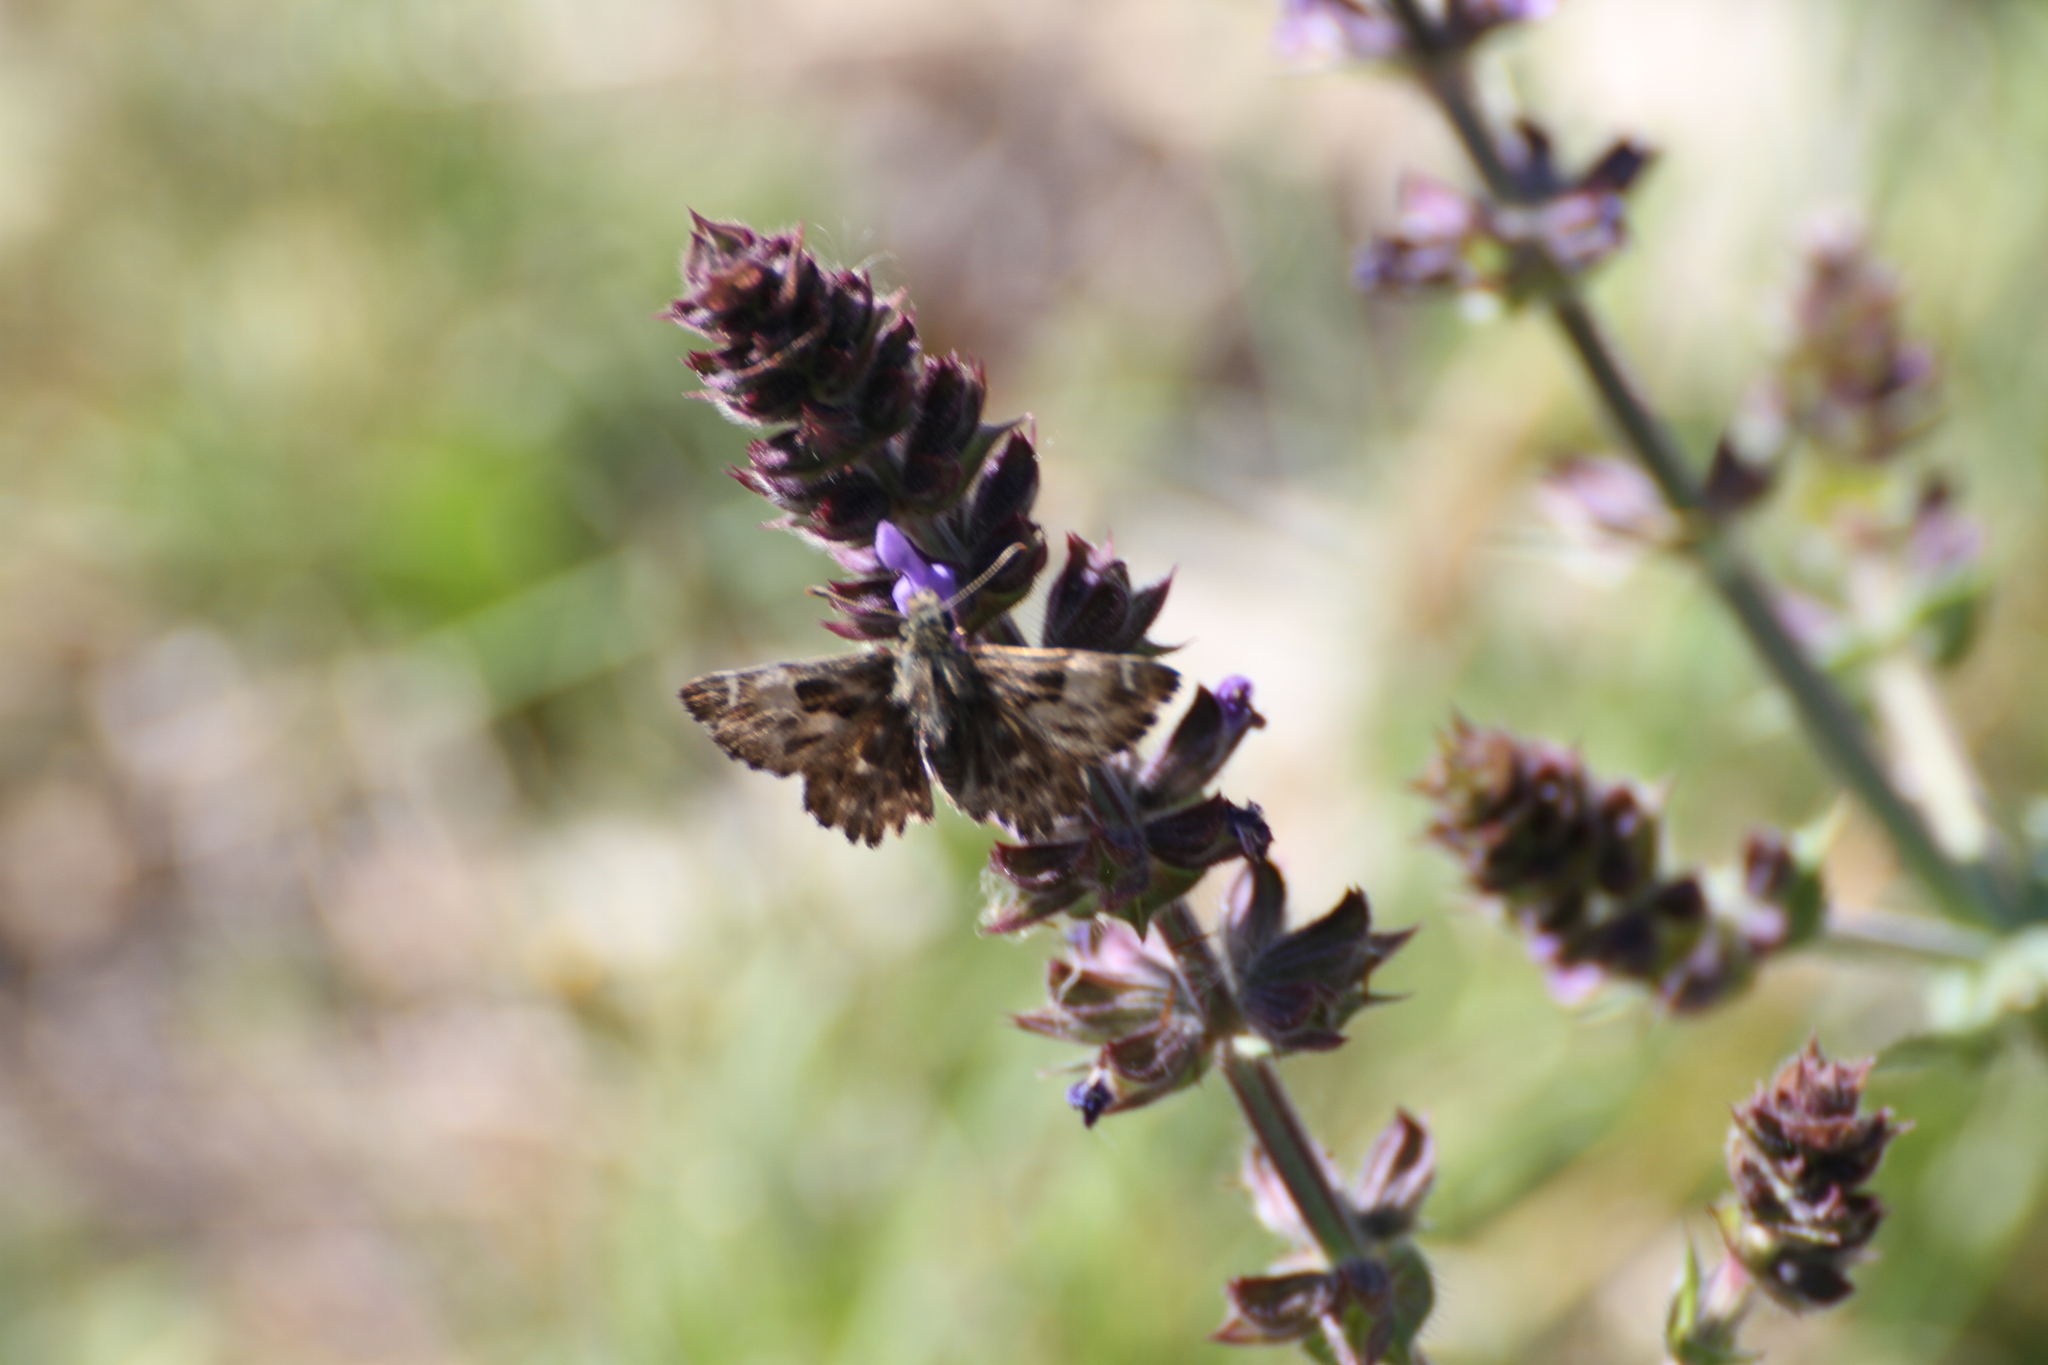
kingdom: Animalia
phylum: Arthropoda
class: Insecta
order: Lepidoptera
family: Hesperiidae
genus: Carcharodus
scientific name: Carcharodus alceae
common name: Mallow skipper
